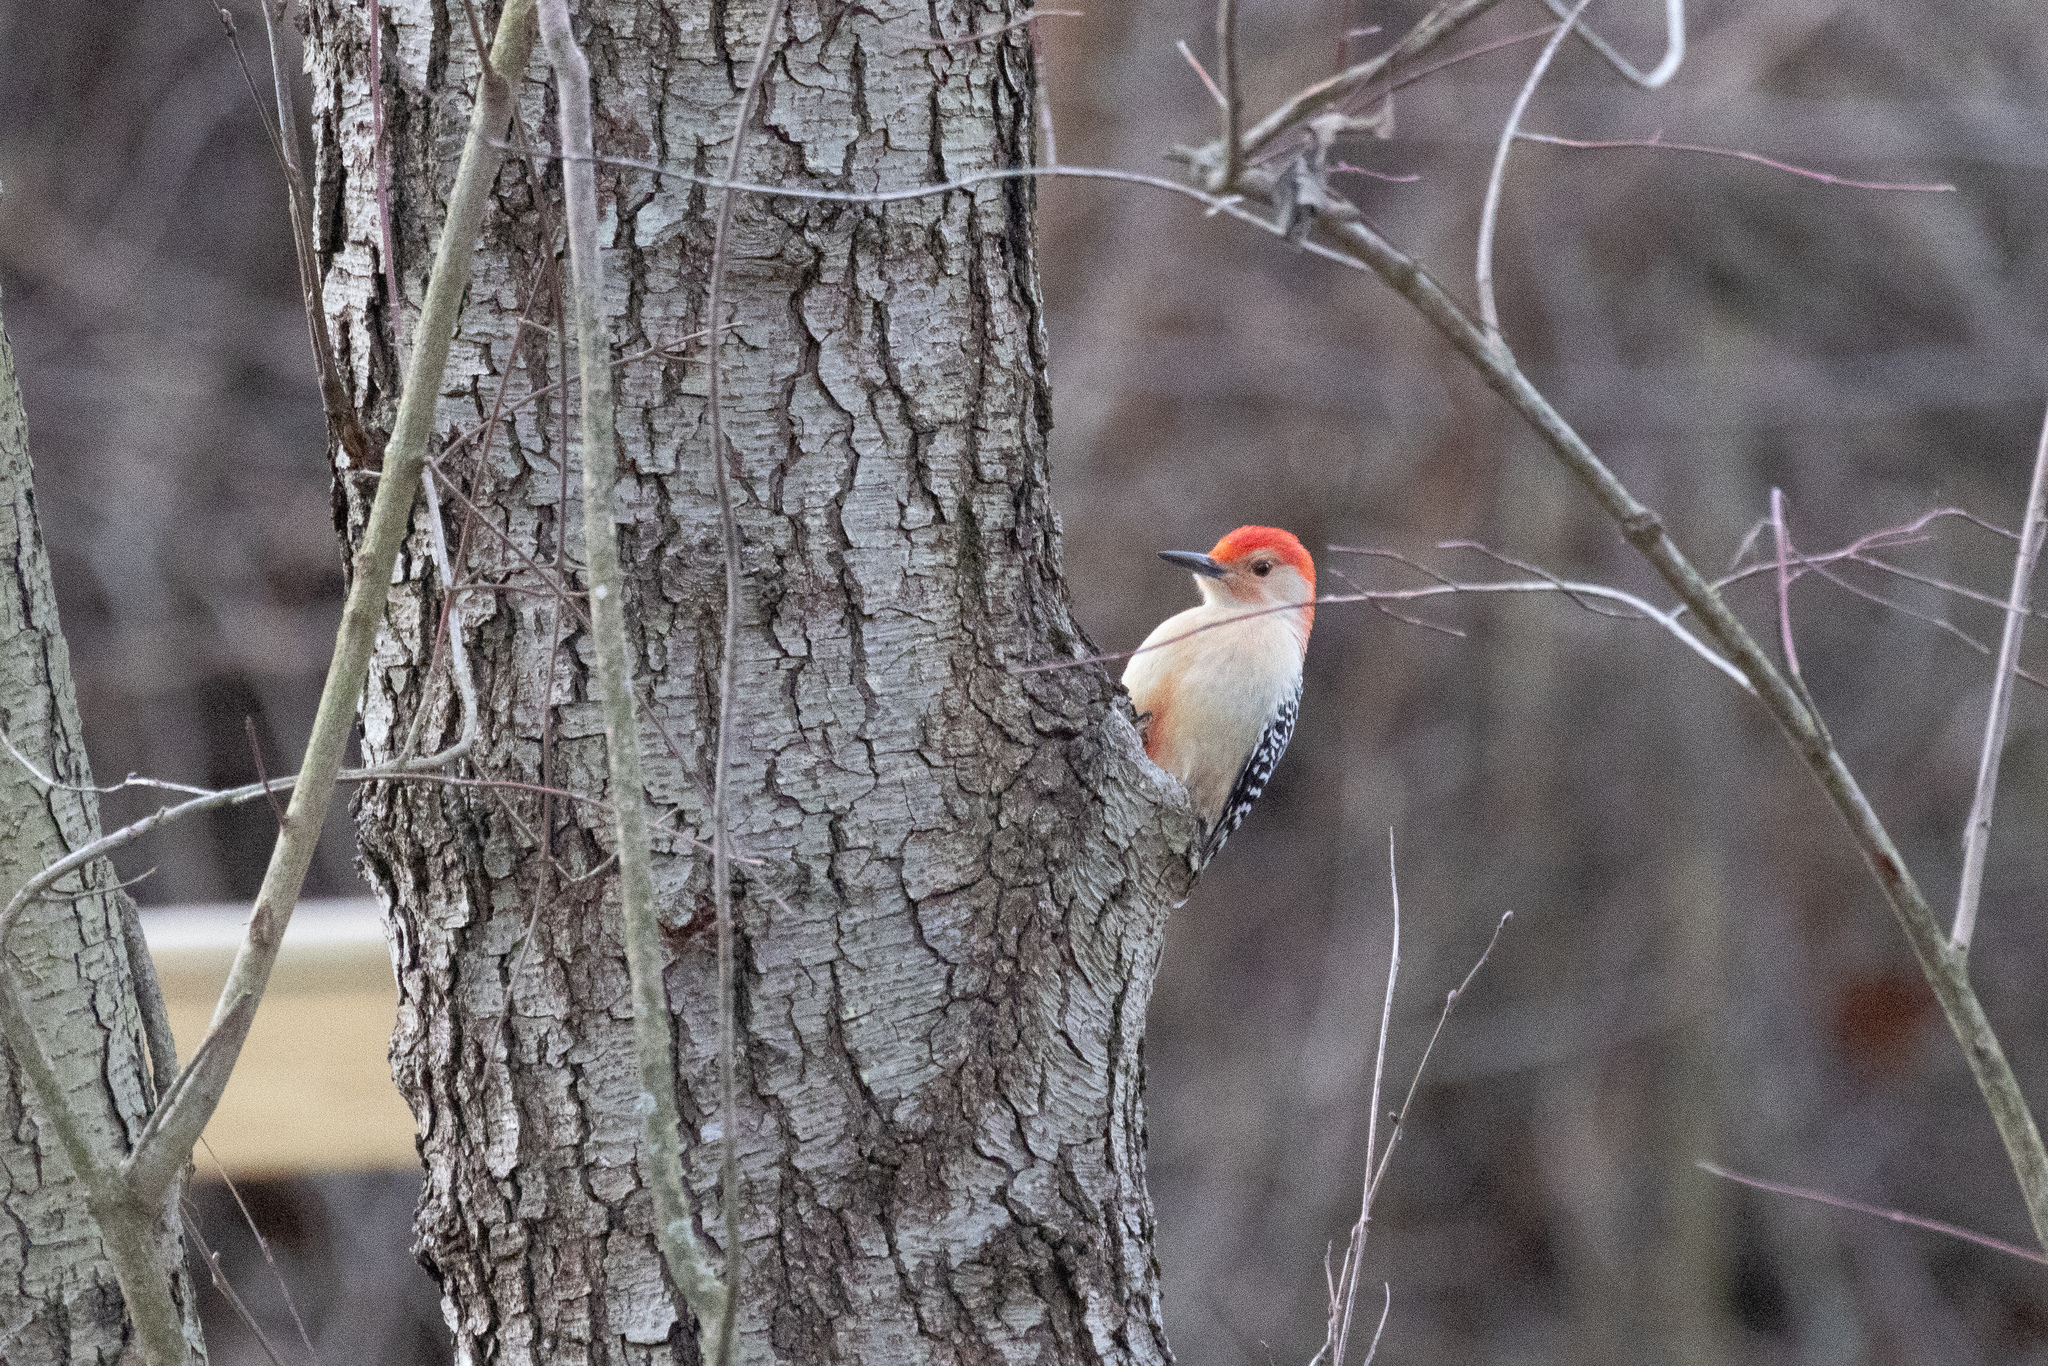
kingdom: Animalia
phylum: Chordata
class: Aves
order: Piciformes
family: Picidae
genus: Melanerpes
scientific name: Melanerpes carolinus
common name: Red-bellied woodpecker
